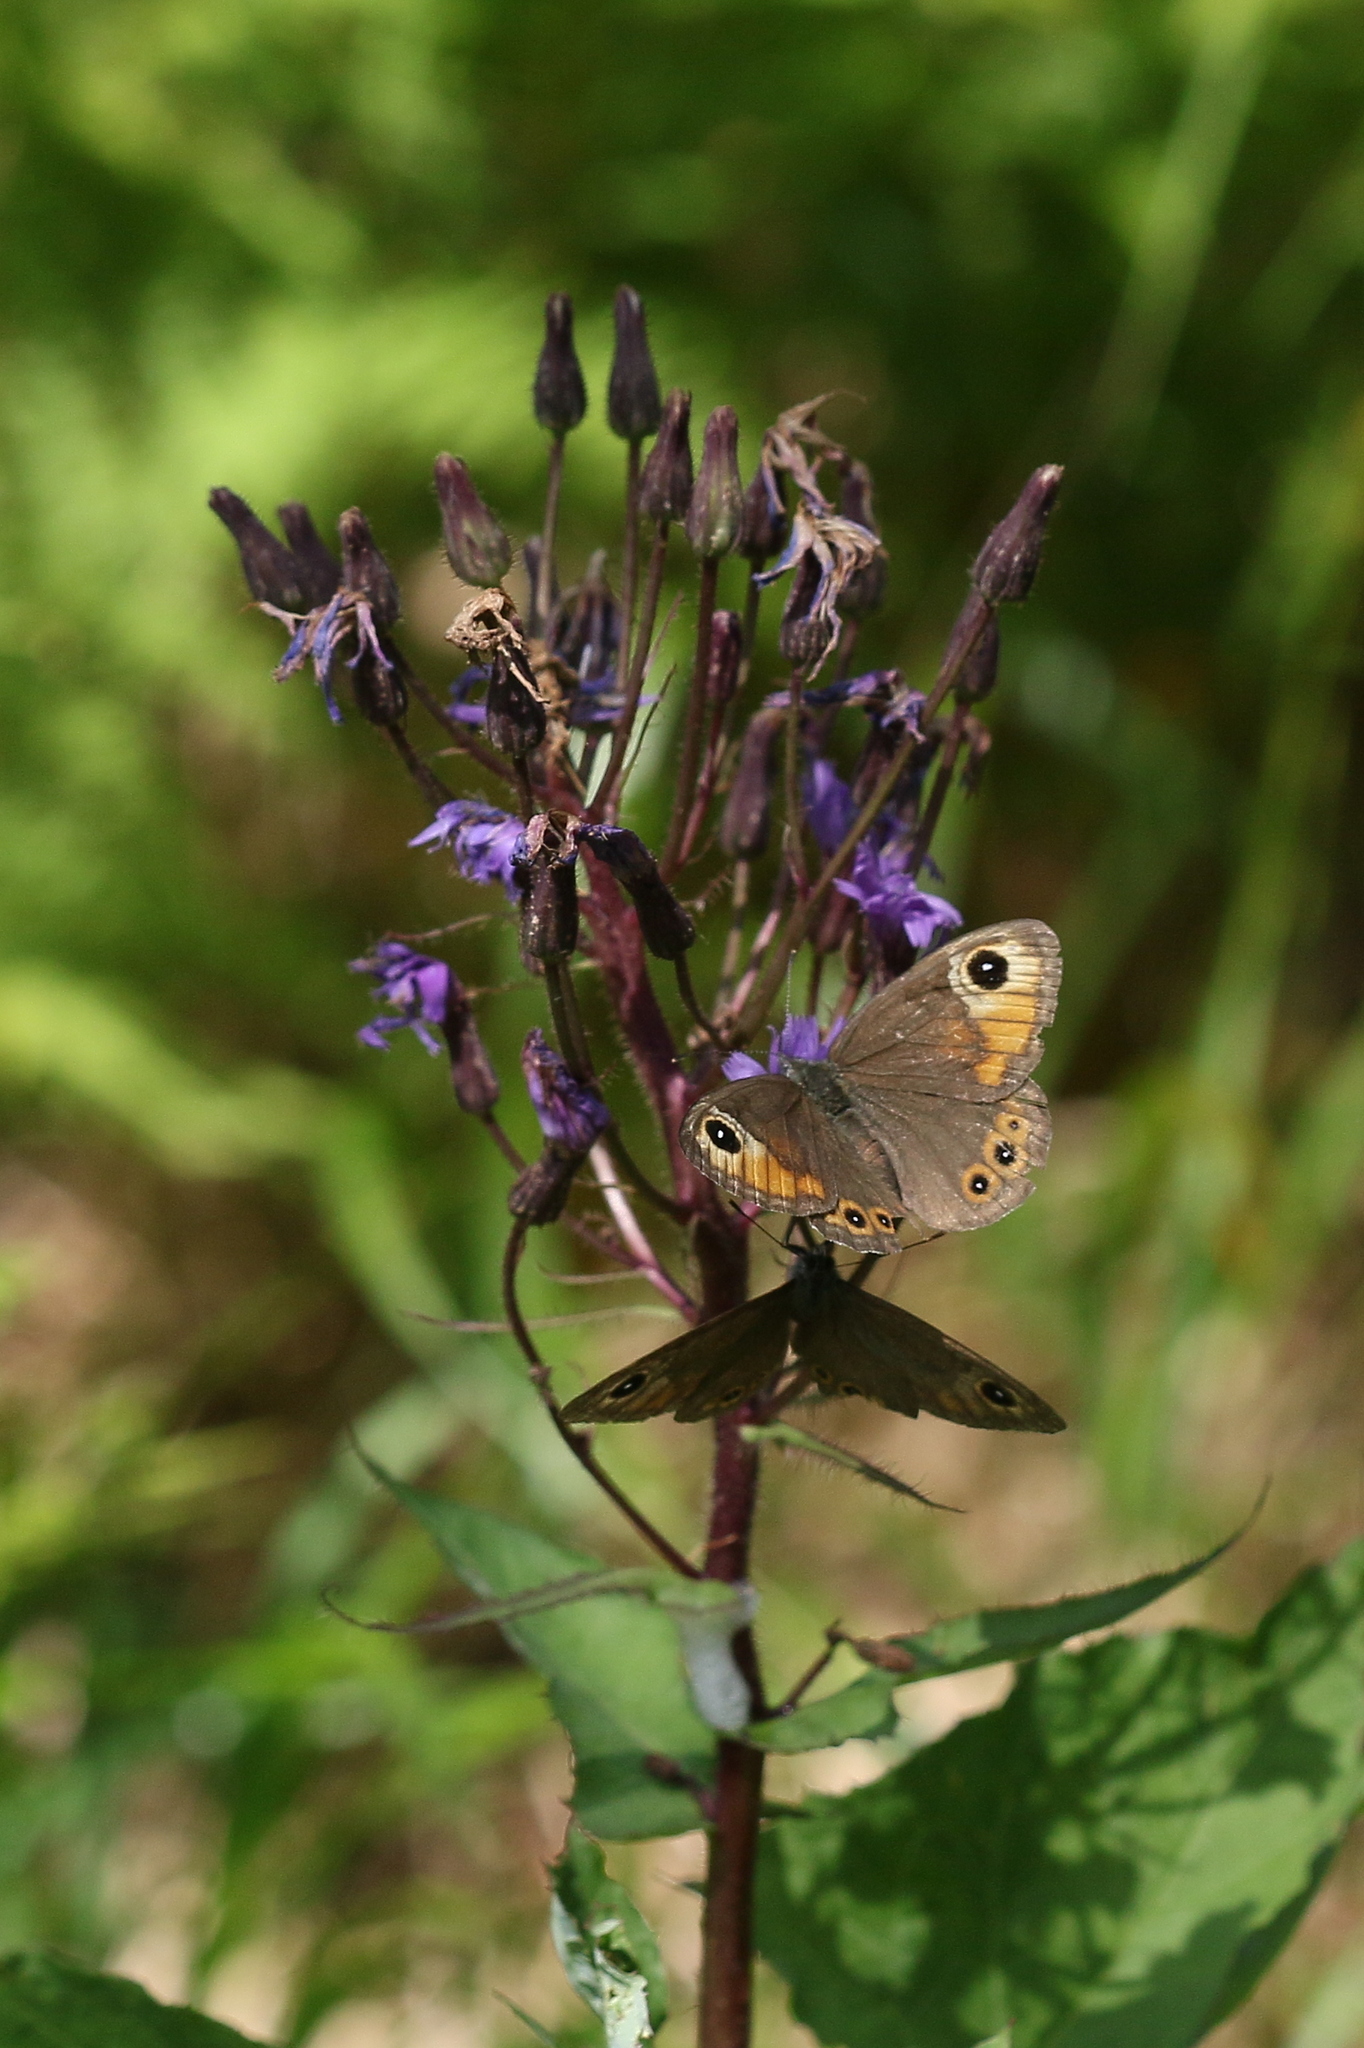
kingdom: Animalia
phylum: Arthropoda
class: Insecta
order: Lepidoptera
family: Nymphalidae
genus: Pararge
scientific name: Pararge Lasiommata maera
